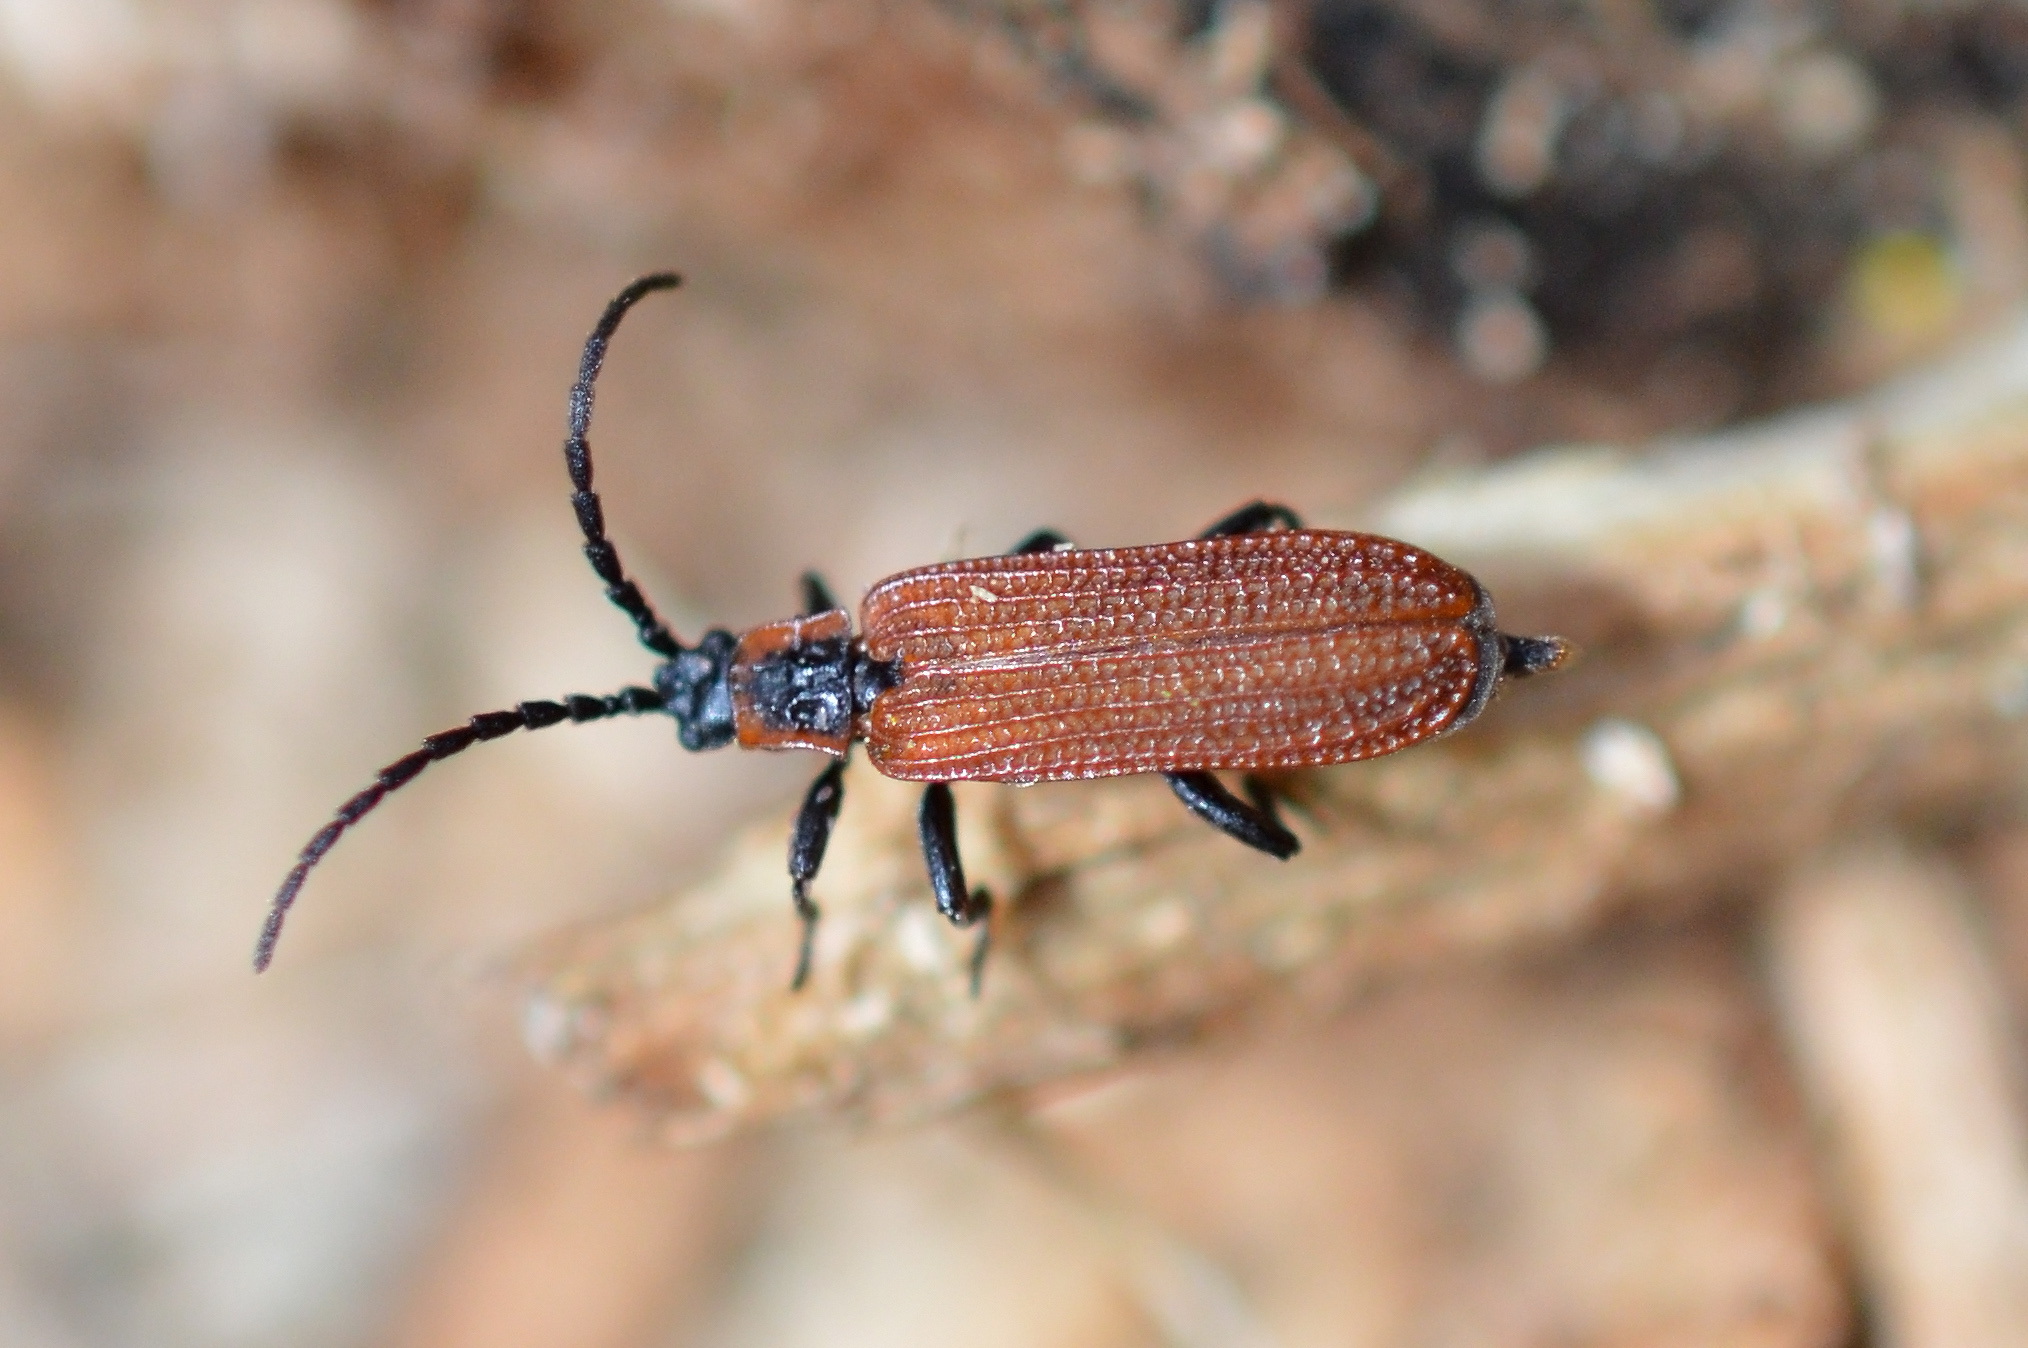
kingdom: Animalia
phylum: Arthropoda
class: Insecta
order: Coleoptera
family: Lycidae
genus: Erotides
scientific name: Erotides cosnardi
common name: Cosnard's net-winged beetle
